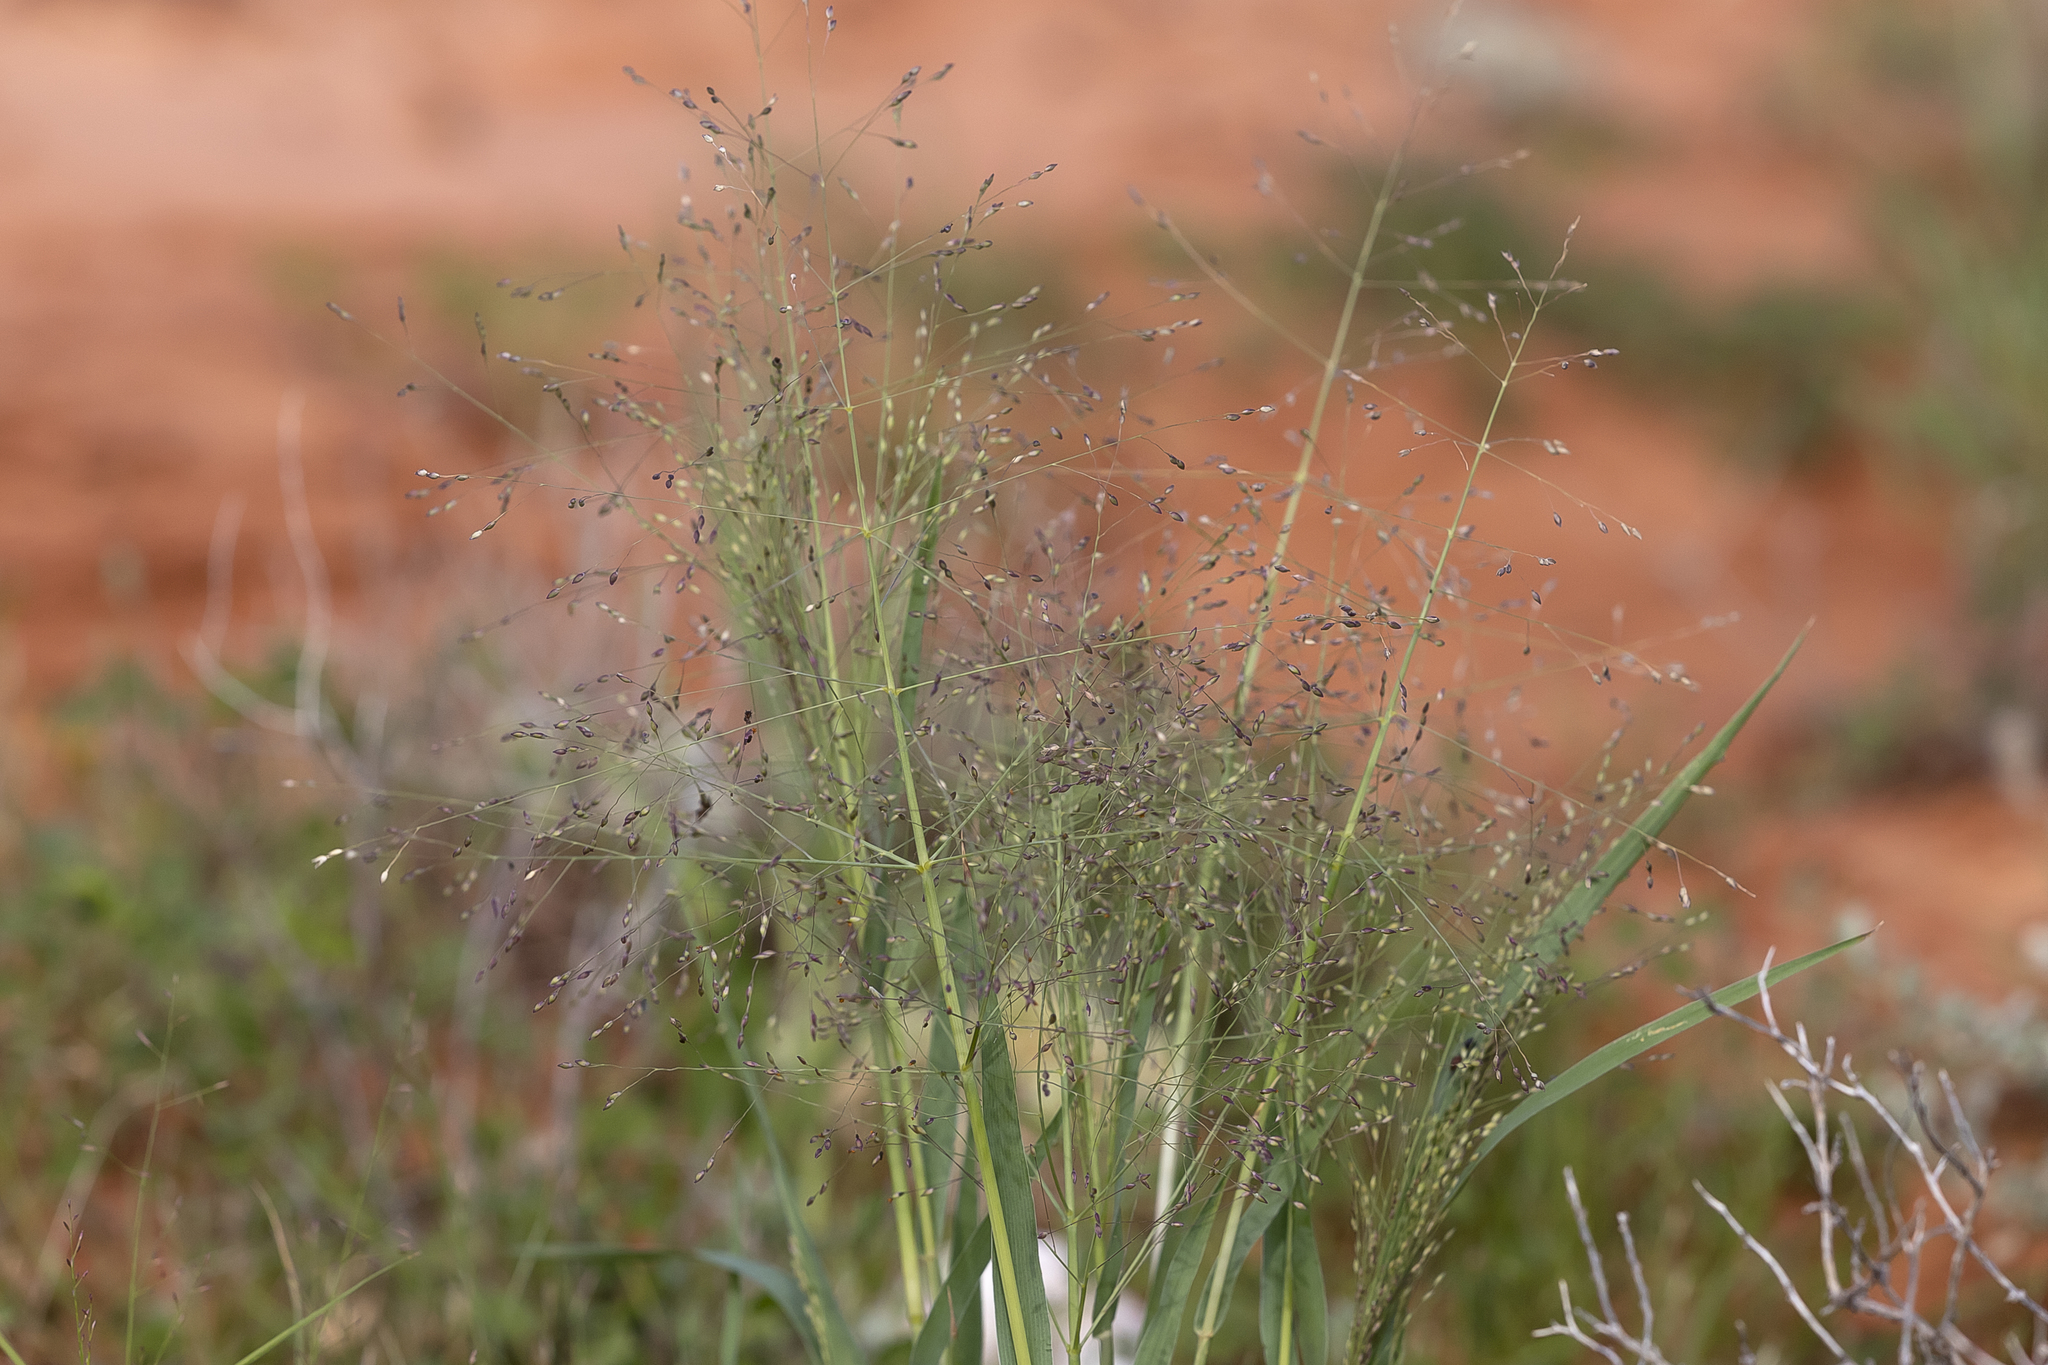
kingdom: Plantae
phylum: Tracheophyta
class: Liliopsida
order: Poales
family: Poaceae
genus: Panicum
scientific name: Panicum decompositum
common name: Australian millet
